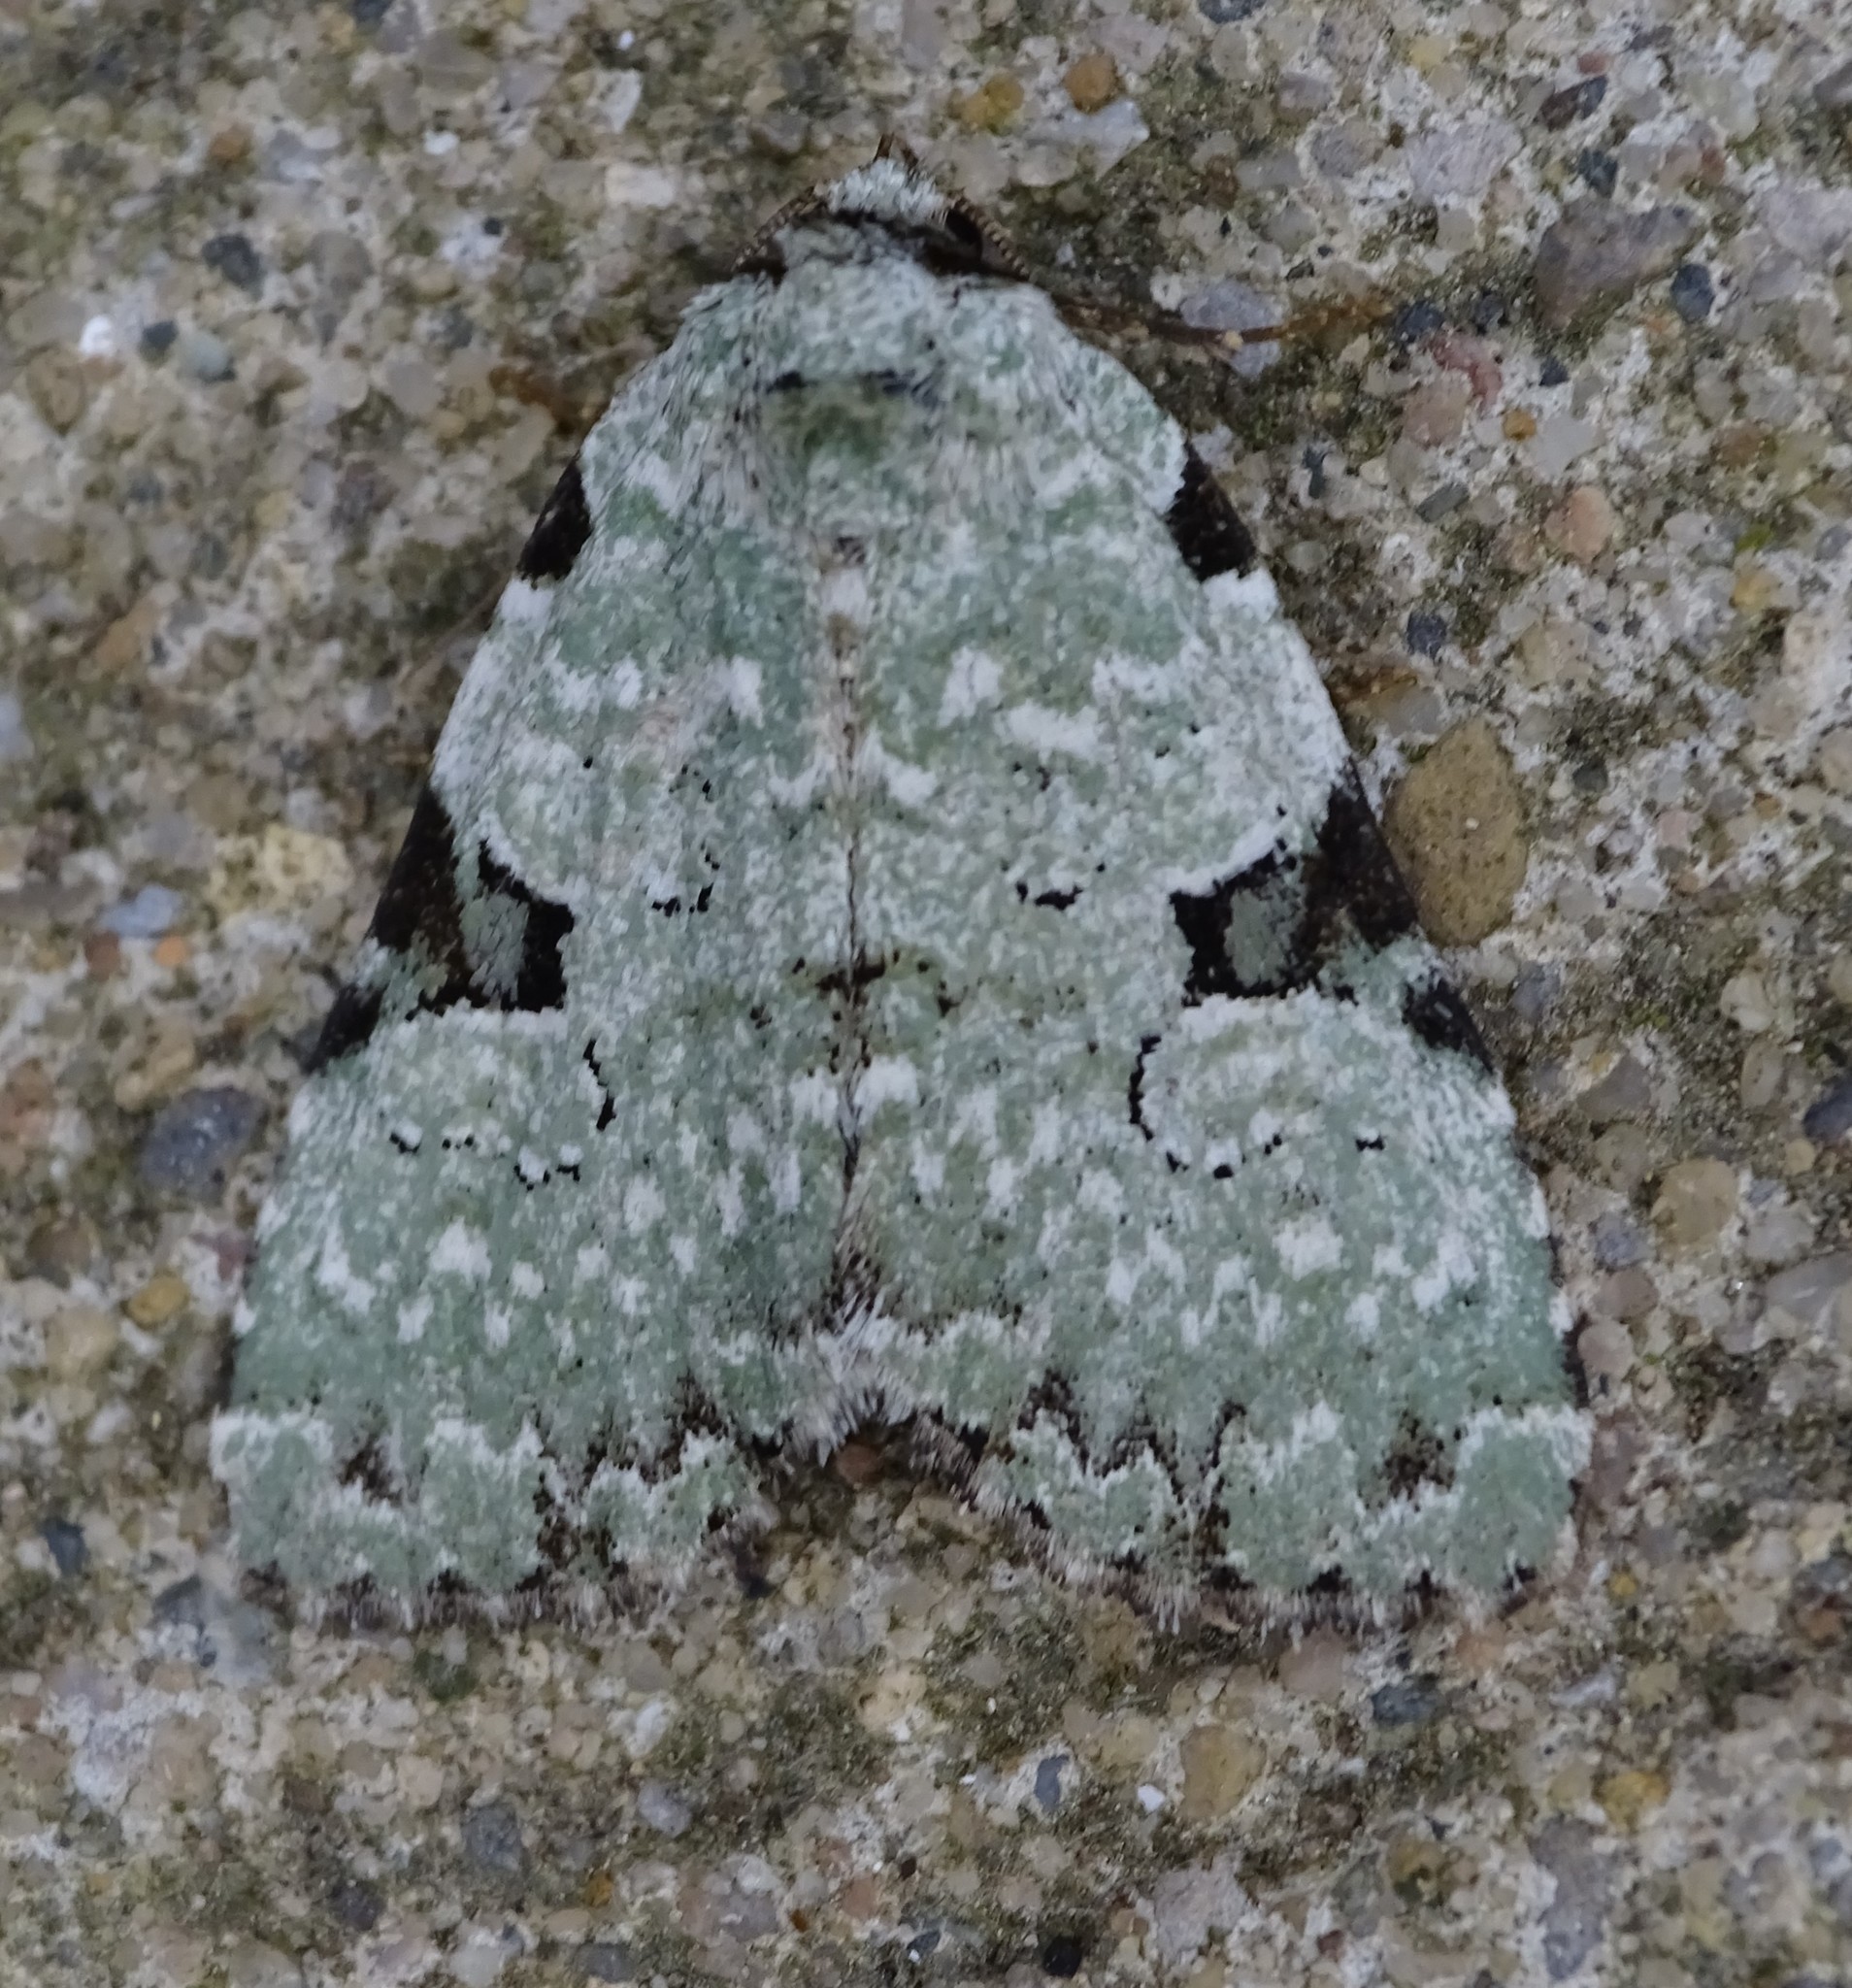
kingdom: Animalia
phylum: Arthropoda
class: Insecta
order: Lepidoptera
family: Noctuidae
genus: Leuconycta
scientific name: Leuconycta diphteroides
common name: Green leuconycta moth
